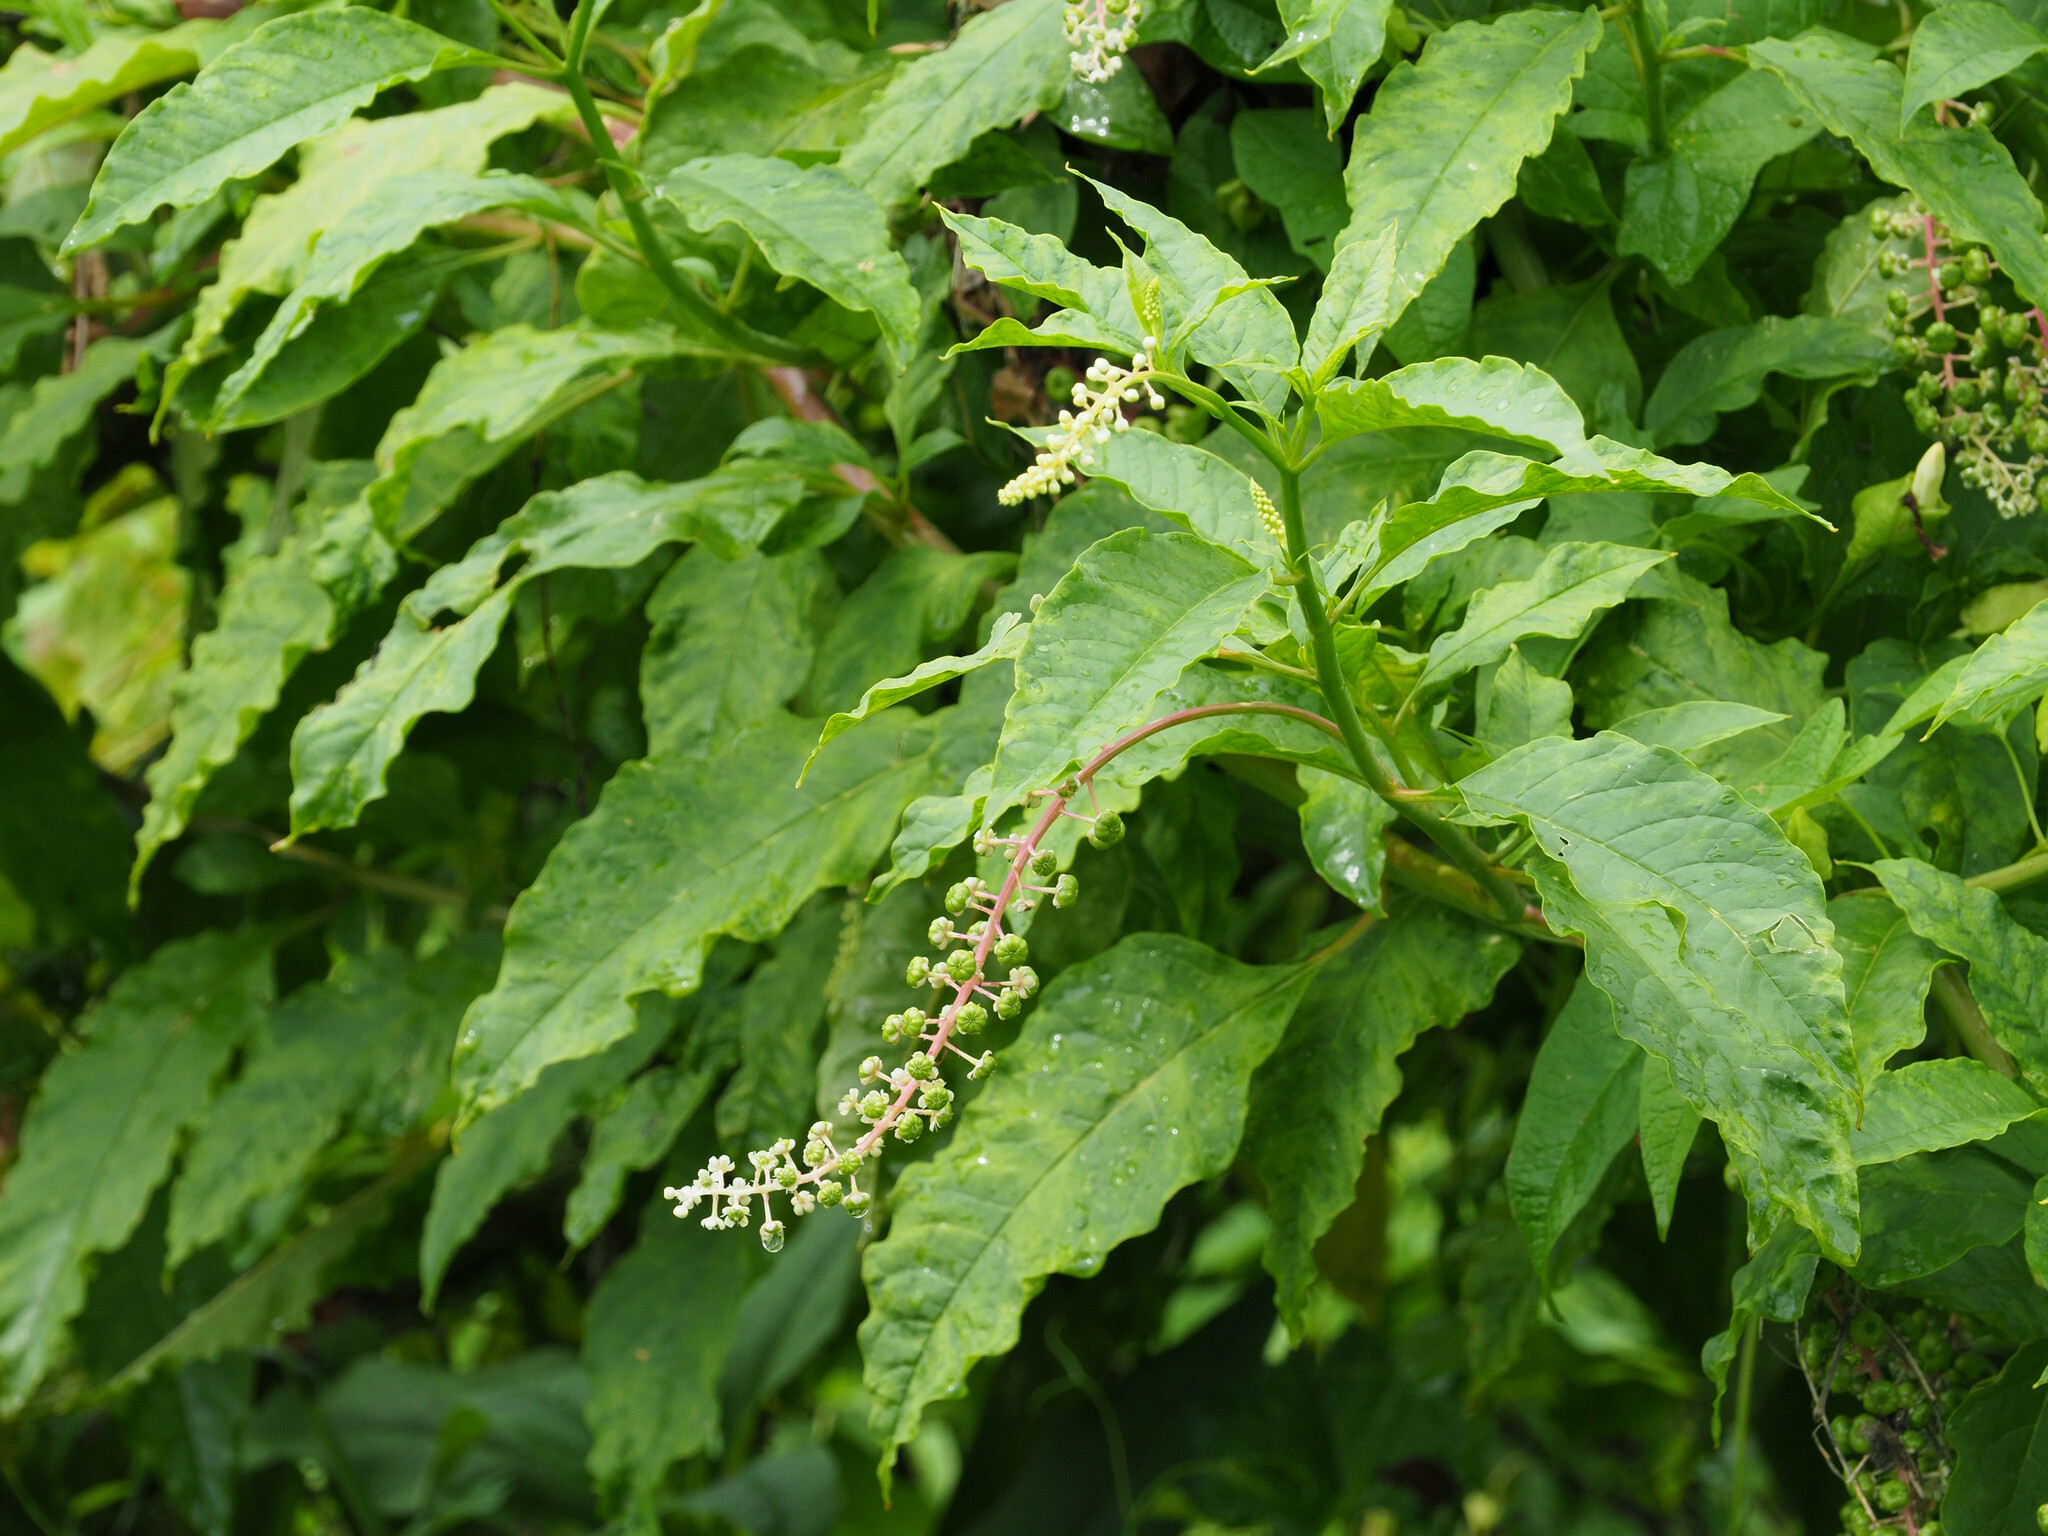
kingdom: Plantae
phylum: Tracheophyta
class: Magnoliopsida
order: Caryophyllales
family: Phytolaccaceae
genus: Phytolacca
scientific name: Phytolacca americana
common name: American pokeweed
